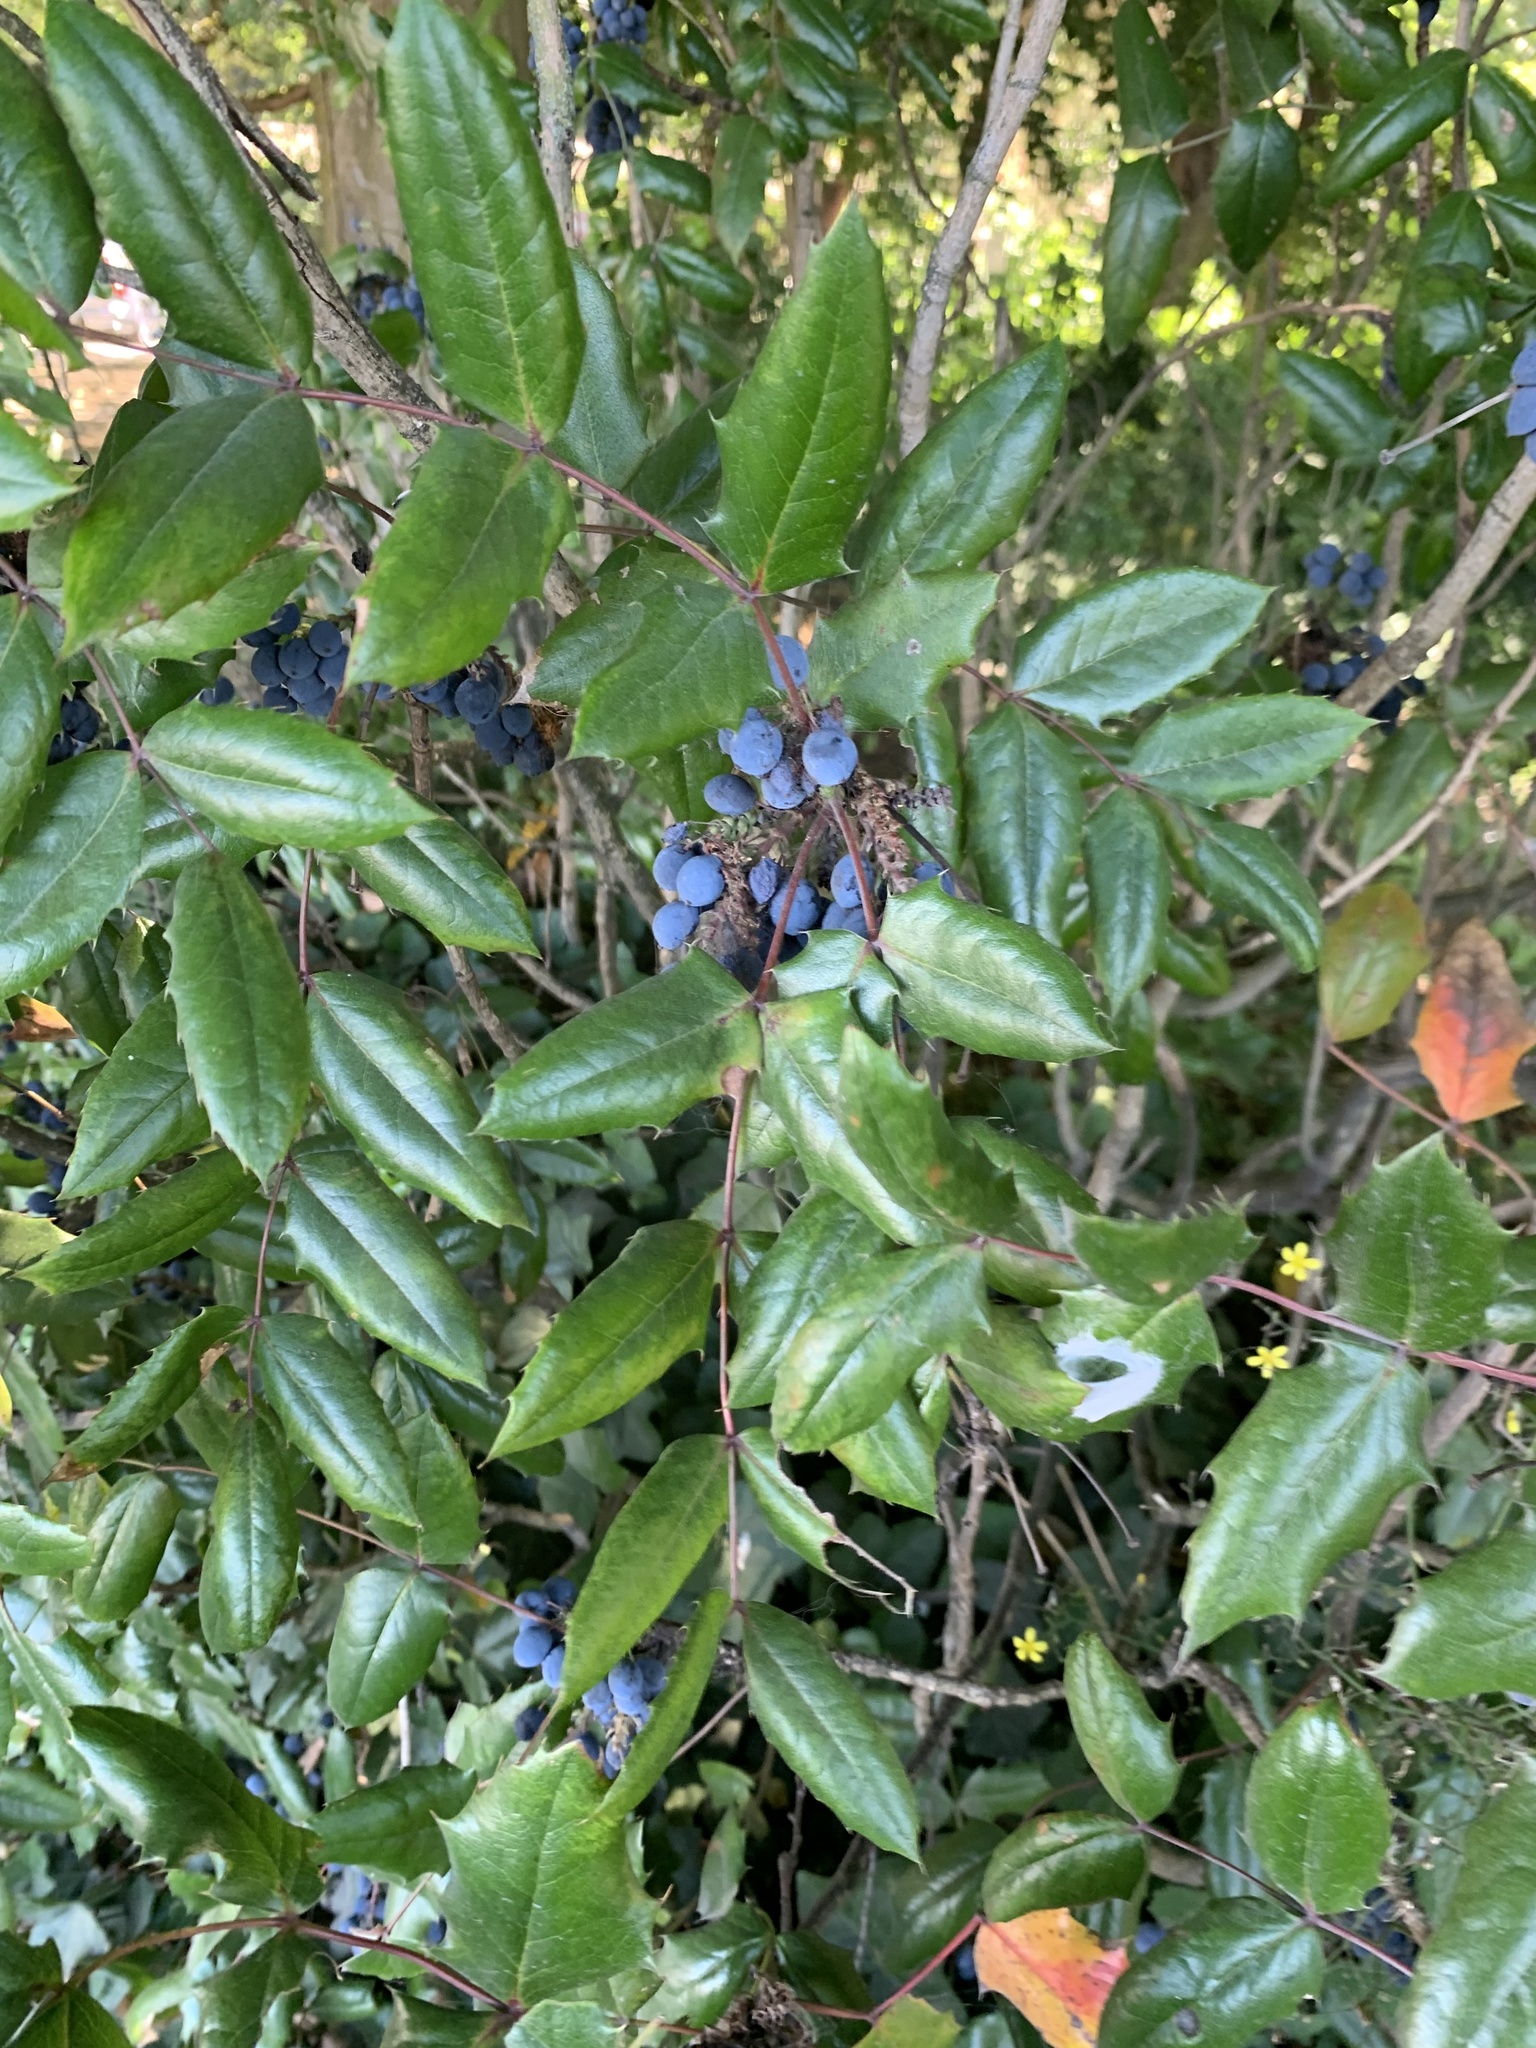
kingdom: Plantae
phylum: Tracheophyta
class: Magnoliopsida
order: Ranunculales
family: Berberidaceae
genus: Mahonia
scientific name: Mahonia aquifolium
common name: Oregon-grape
